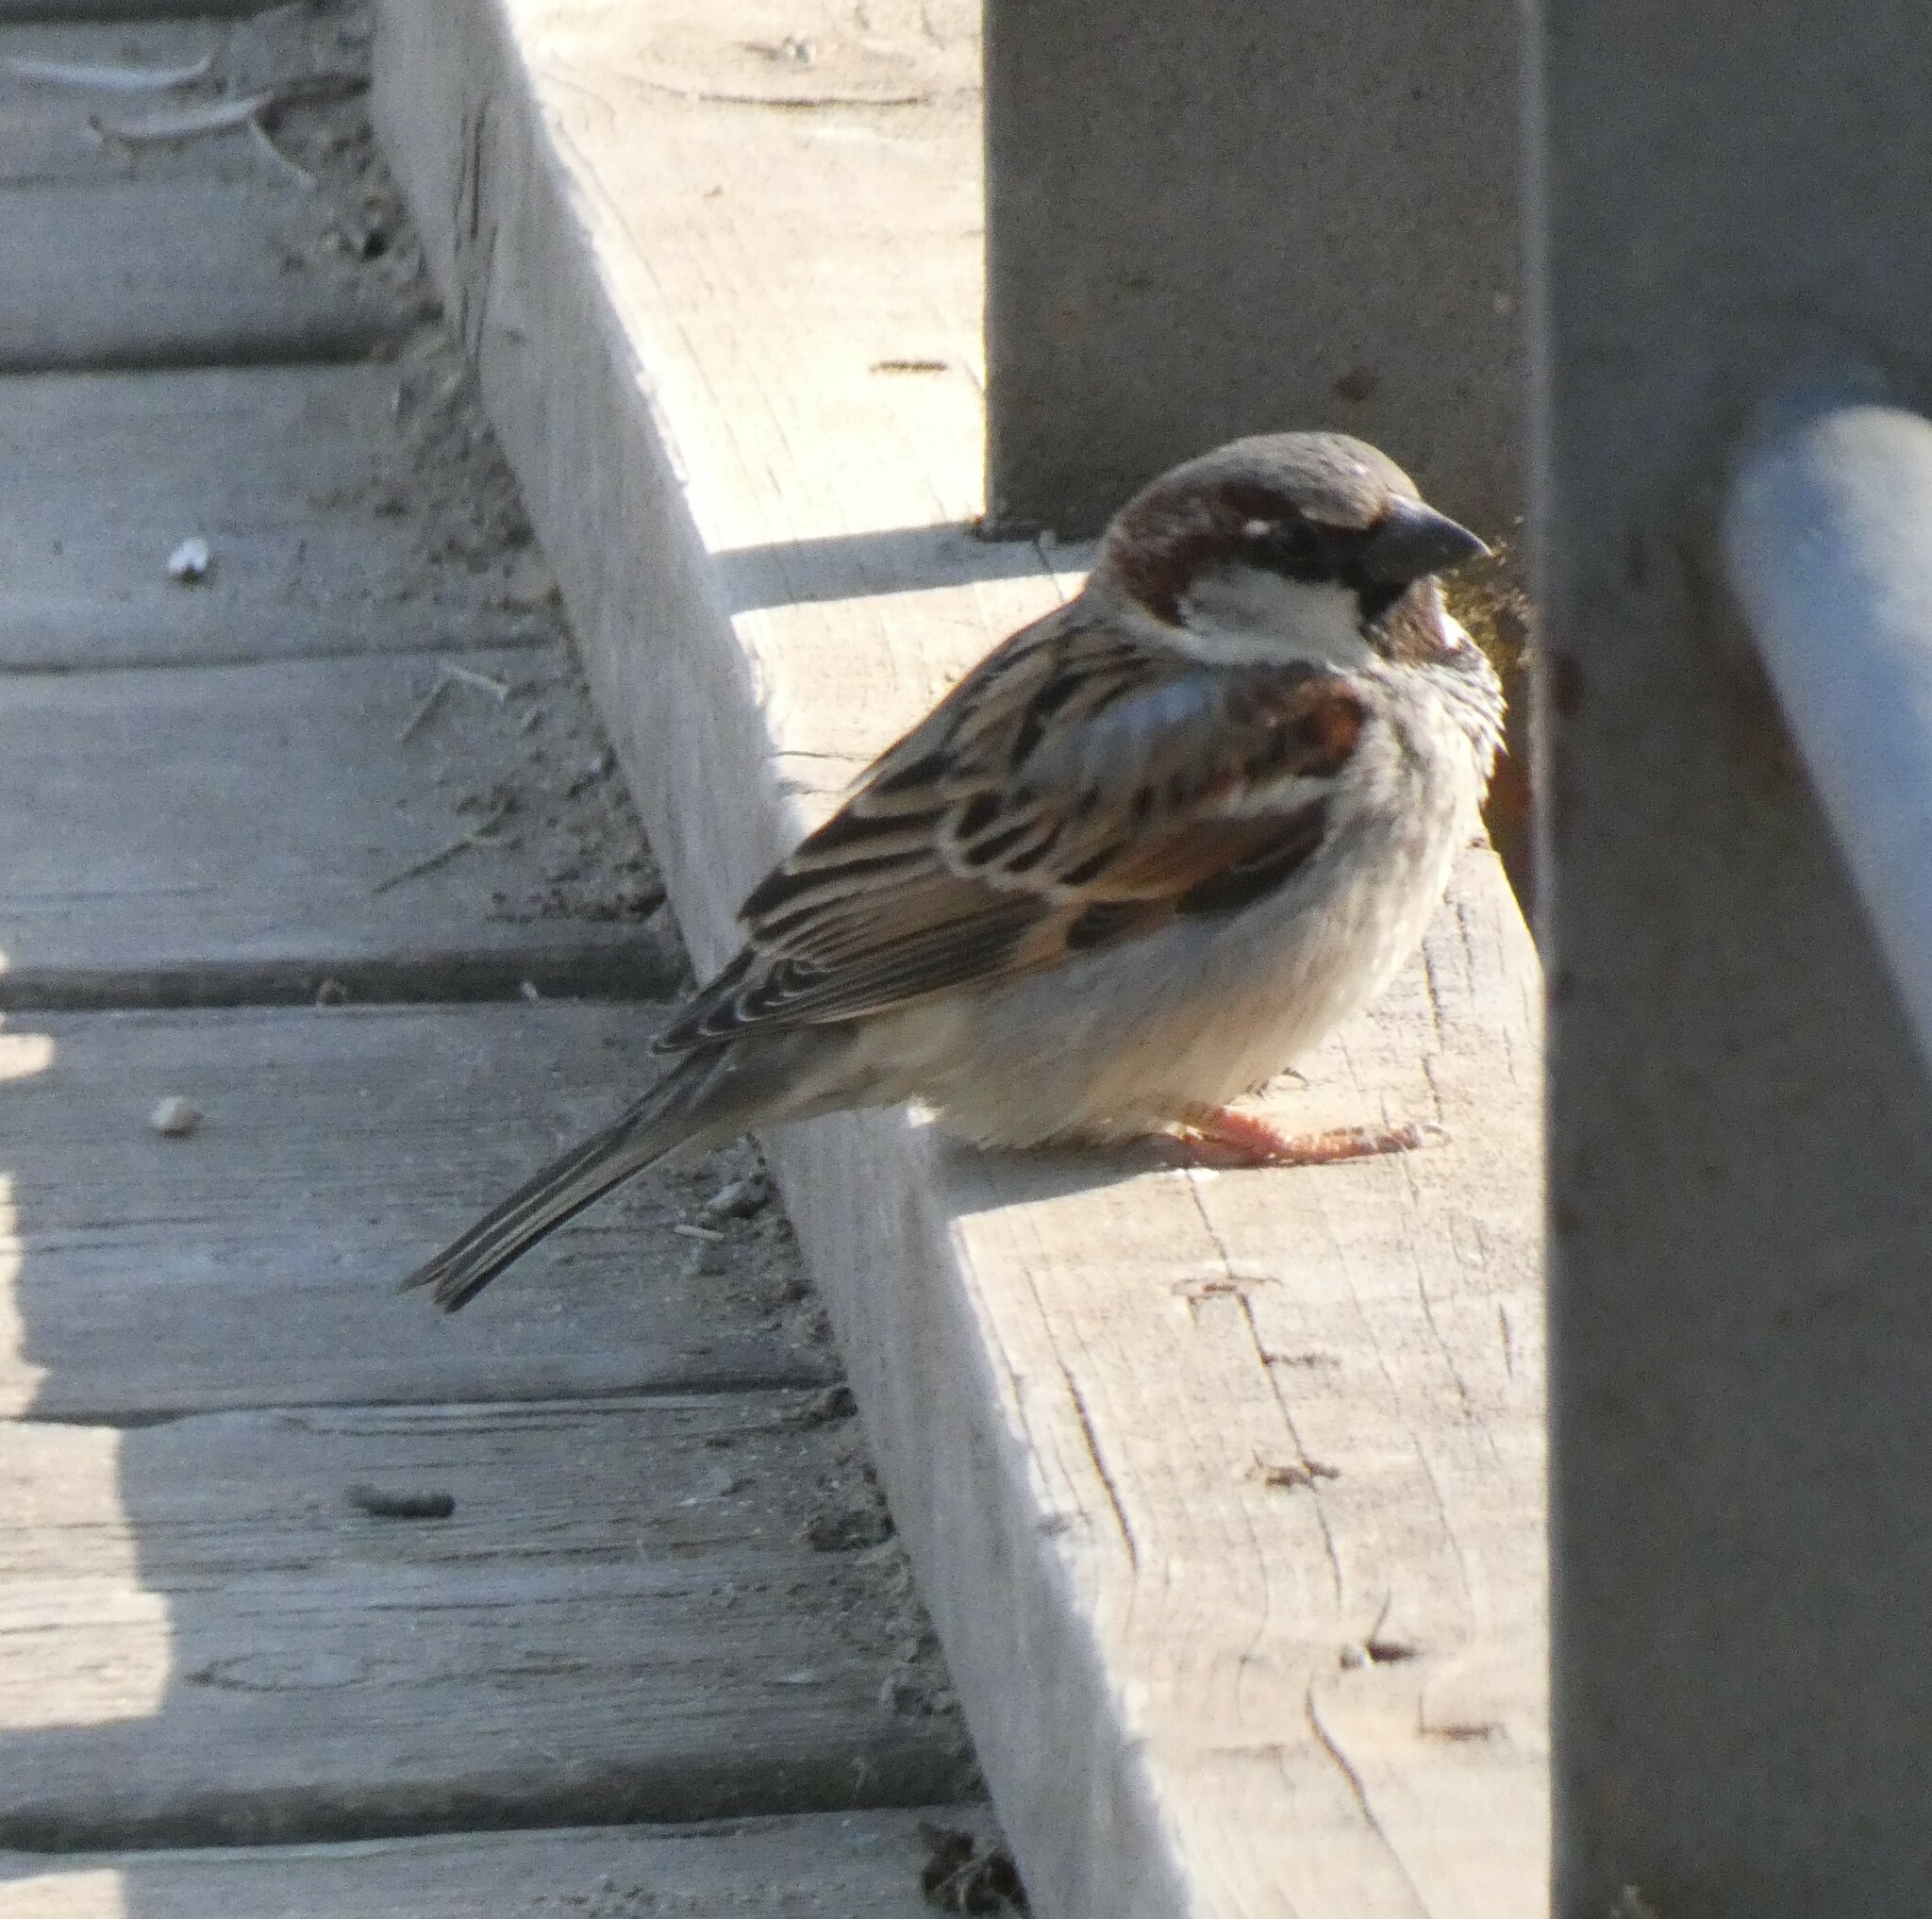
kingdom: Animalia
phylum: Chordata
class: Aves
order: Passeriformes
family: Passeridae
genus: Passer
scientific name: Passer domesticus
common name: House sparrow
